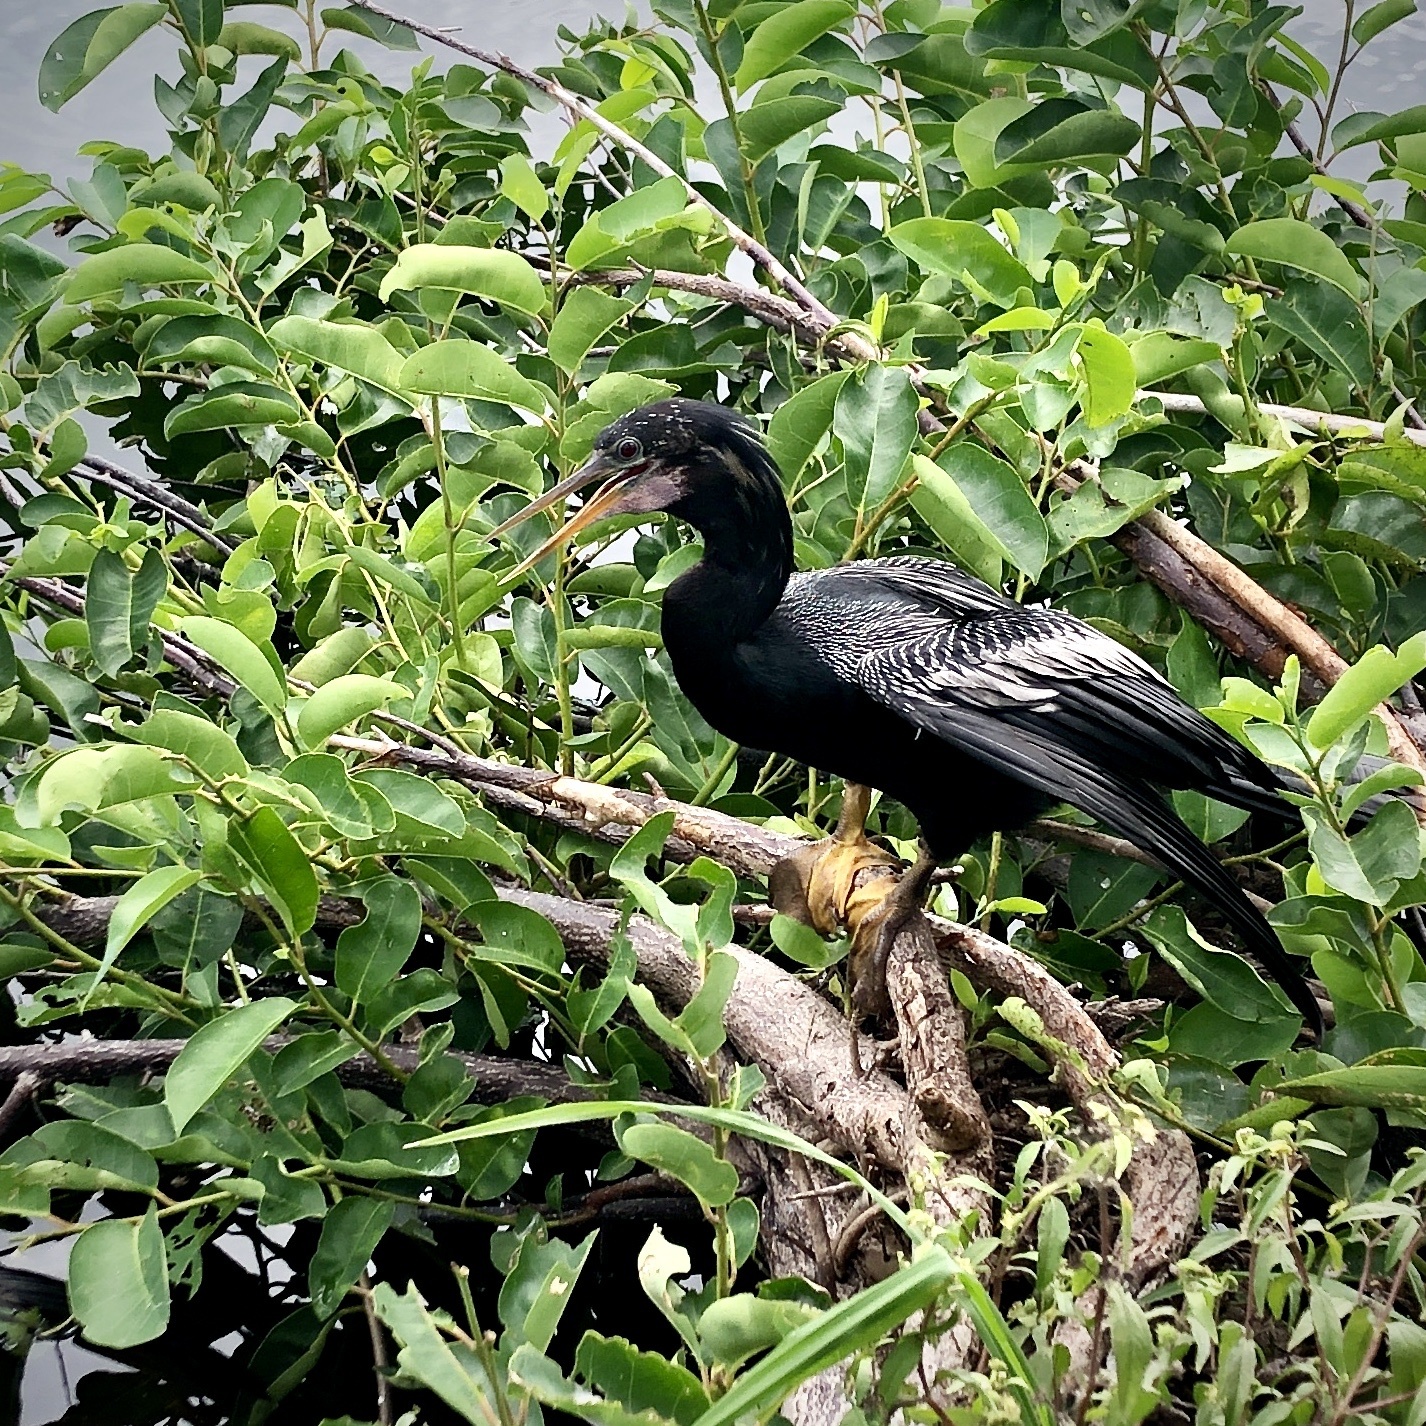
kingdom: Animalia
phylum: Chordata
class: Aves
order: Suliformes
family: Anhingidae
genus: Anhinga
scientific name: Anhinga anhinga
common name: Anhinga
